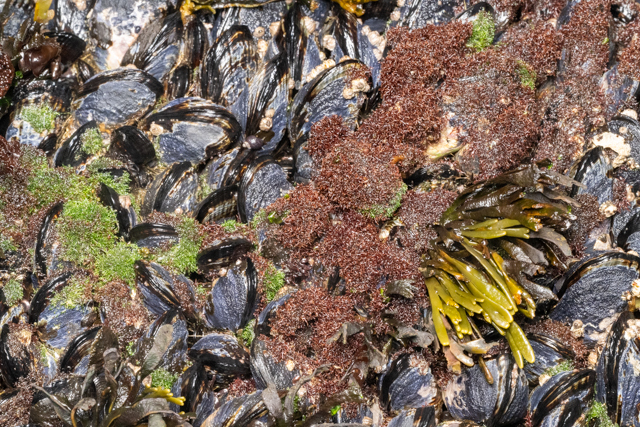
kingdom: Animalia
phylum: Mollusca
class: Bivalvia
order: Mytilida
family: Mytilidae
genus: Mytilus
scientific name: Mytilus californianus
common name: California mussel
